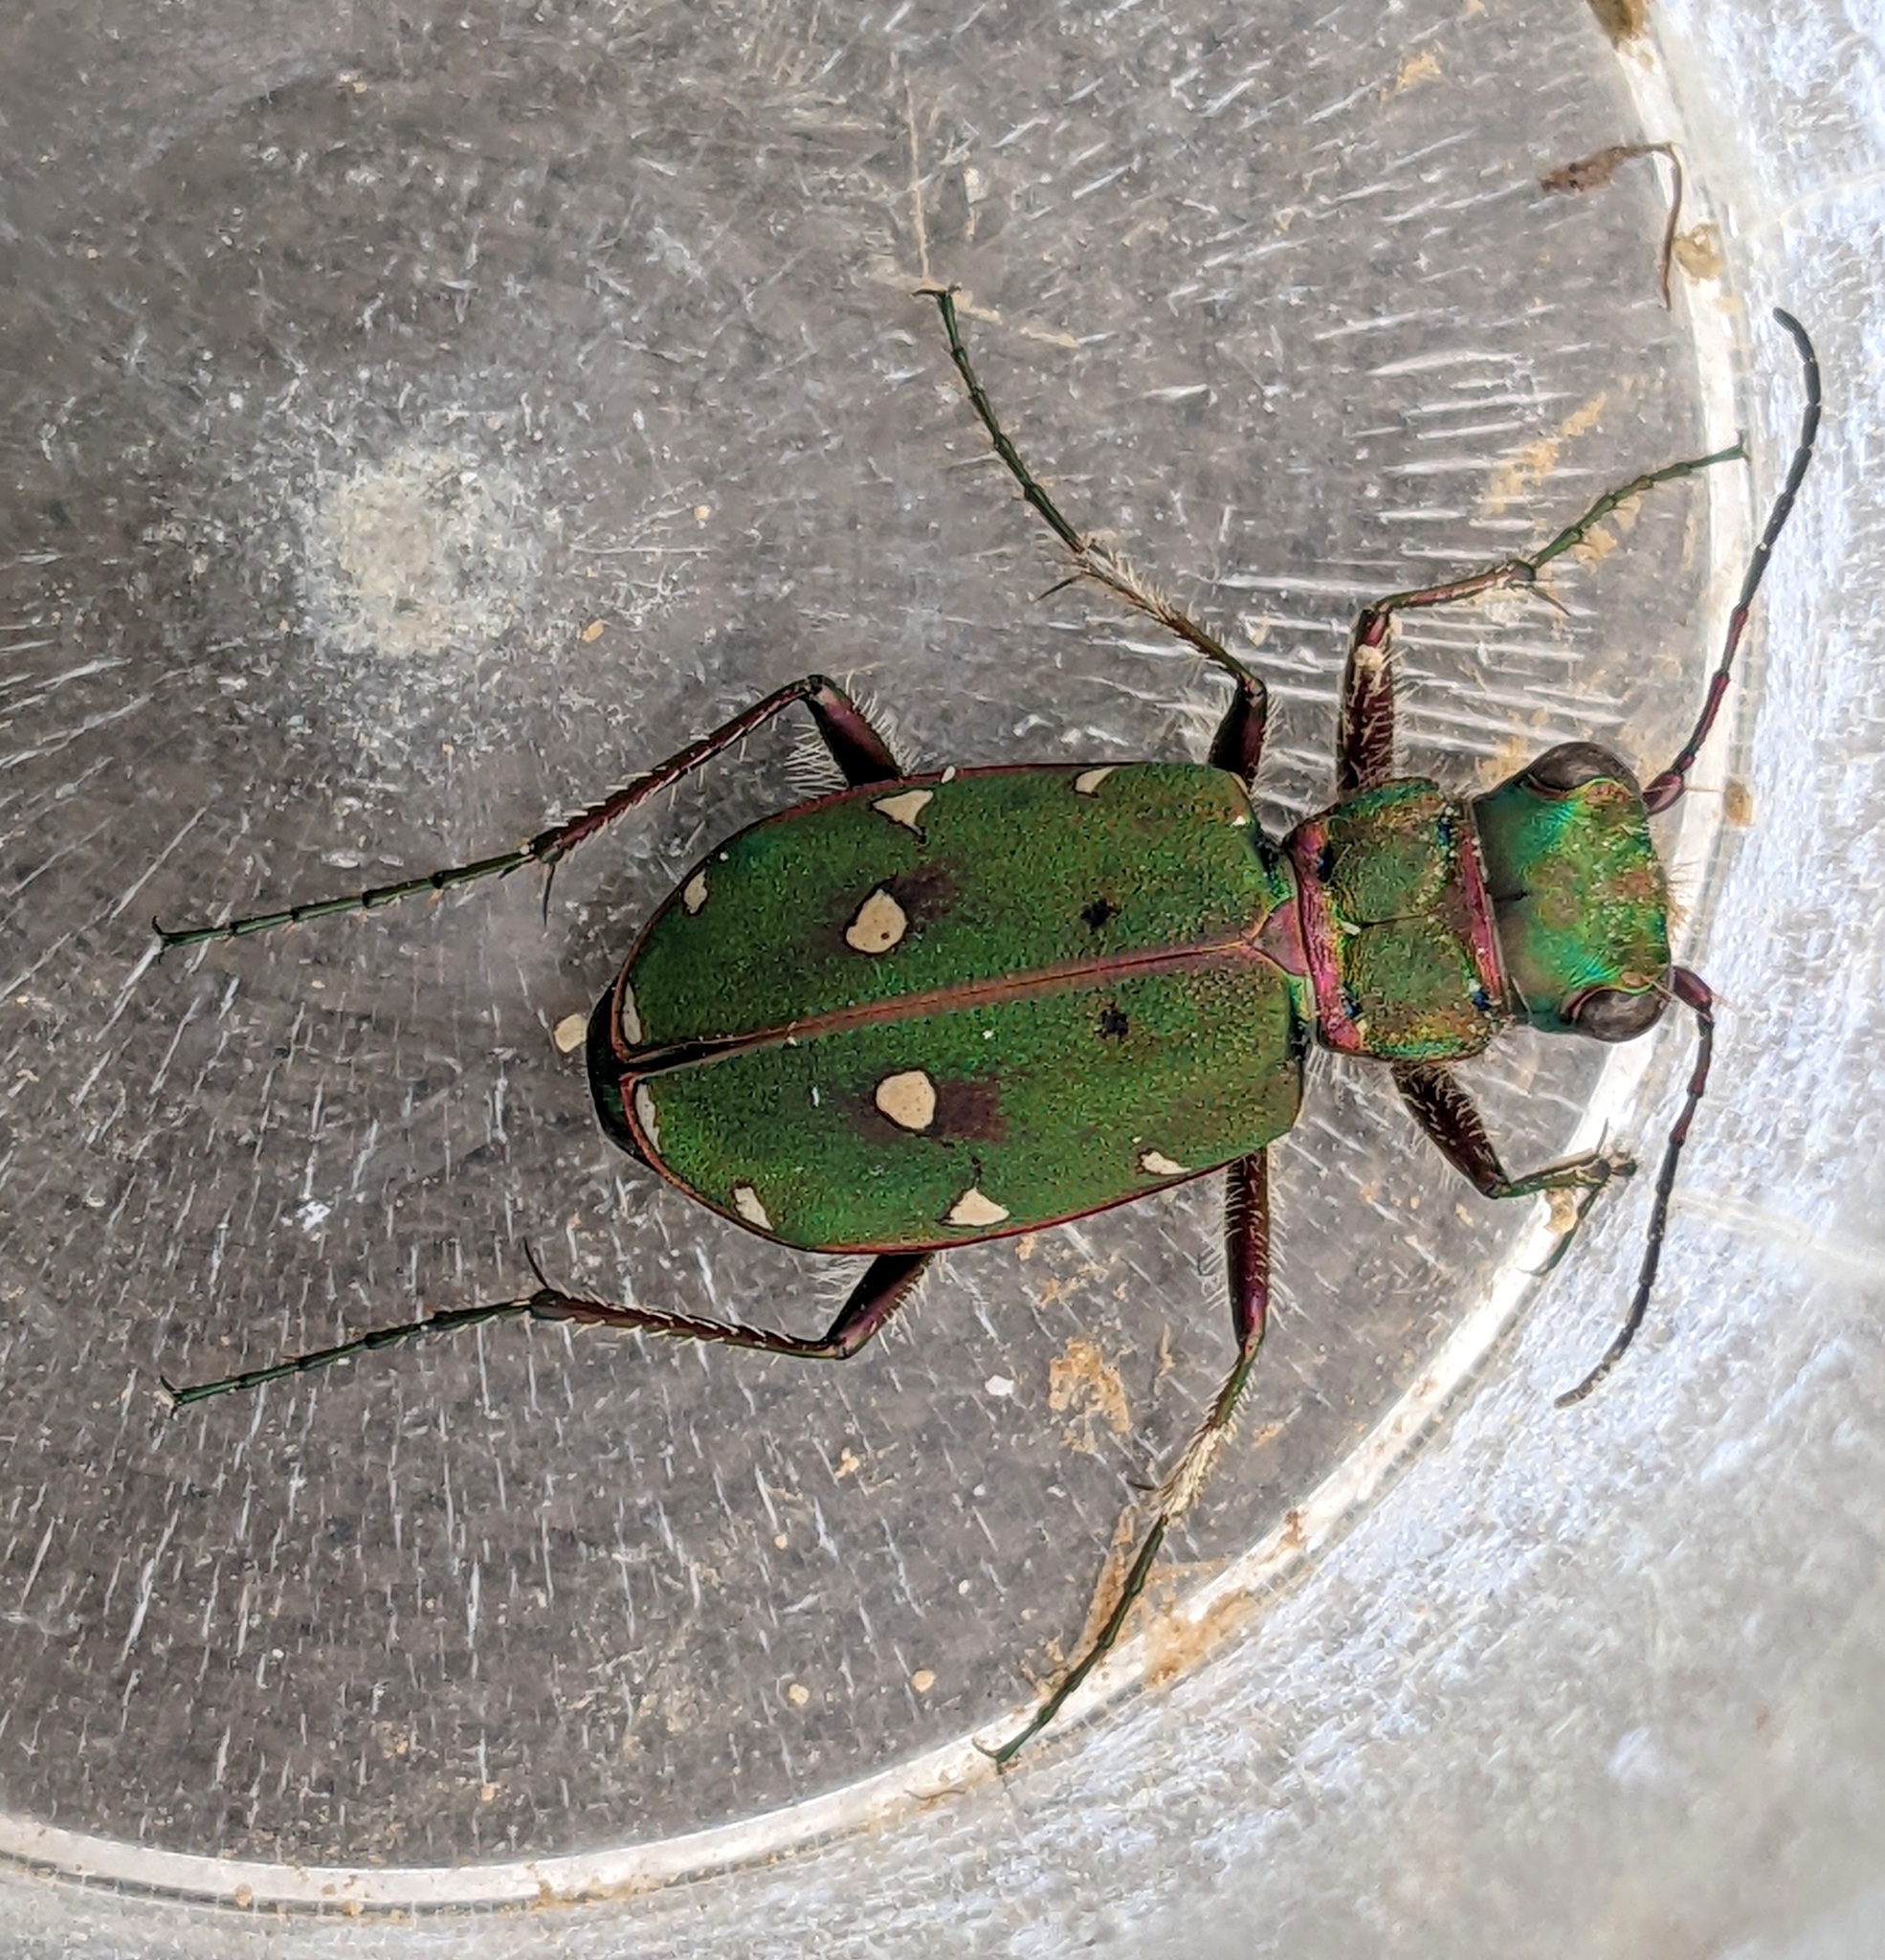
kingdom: Animalia
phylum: Arthropoda
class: Insecta
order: Coleoptera
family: Carabidae
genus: Cicindela
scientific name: Cicindela campestris
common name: Common tiger beetle
